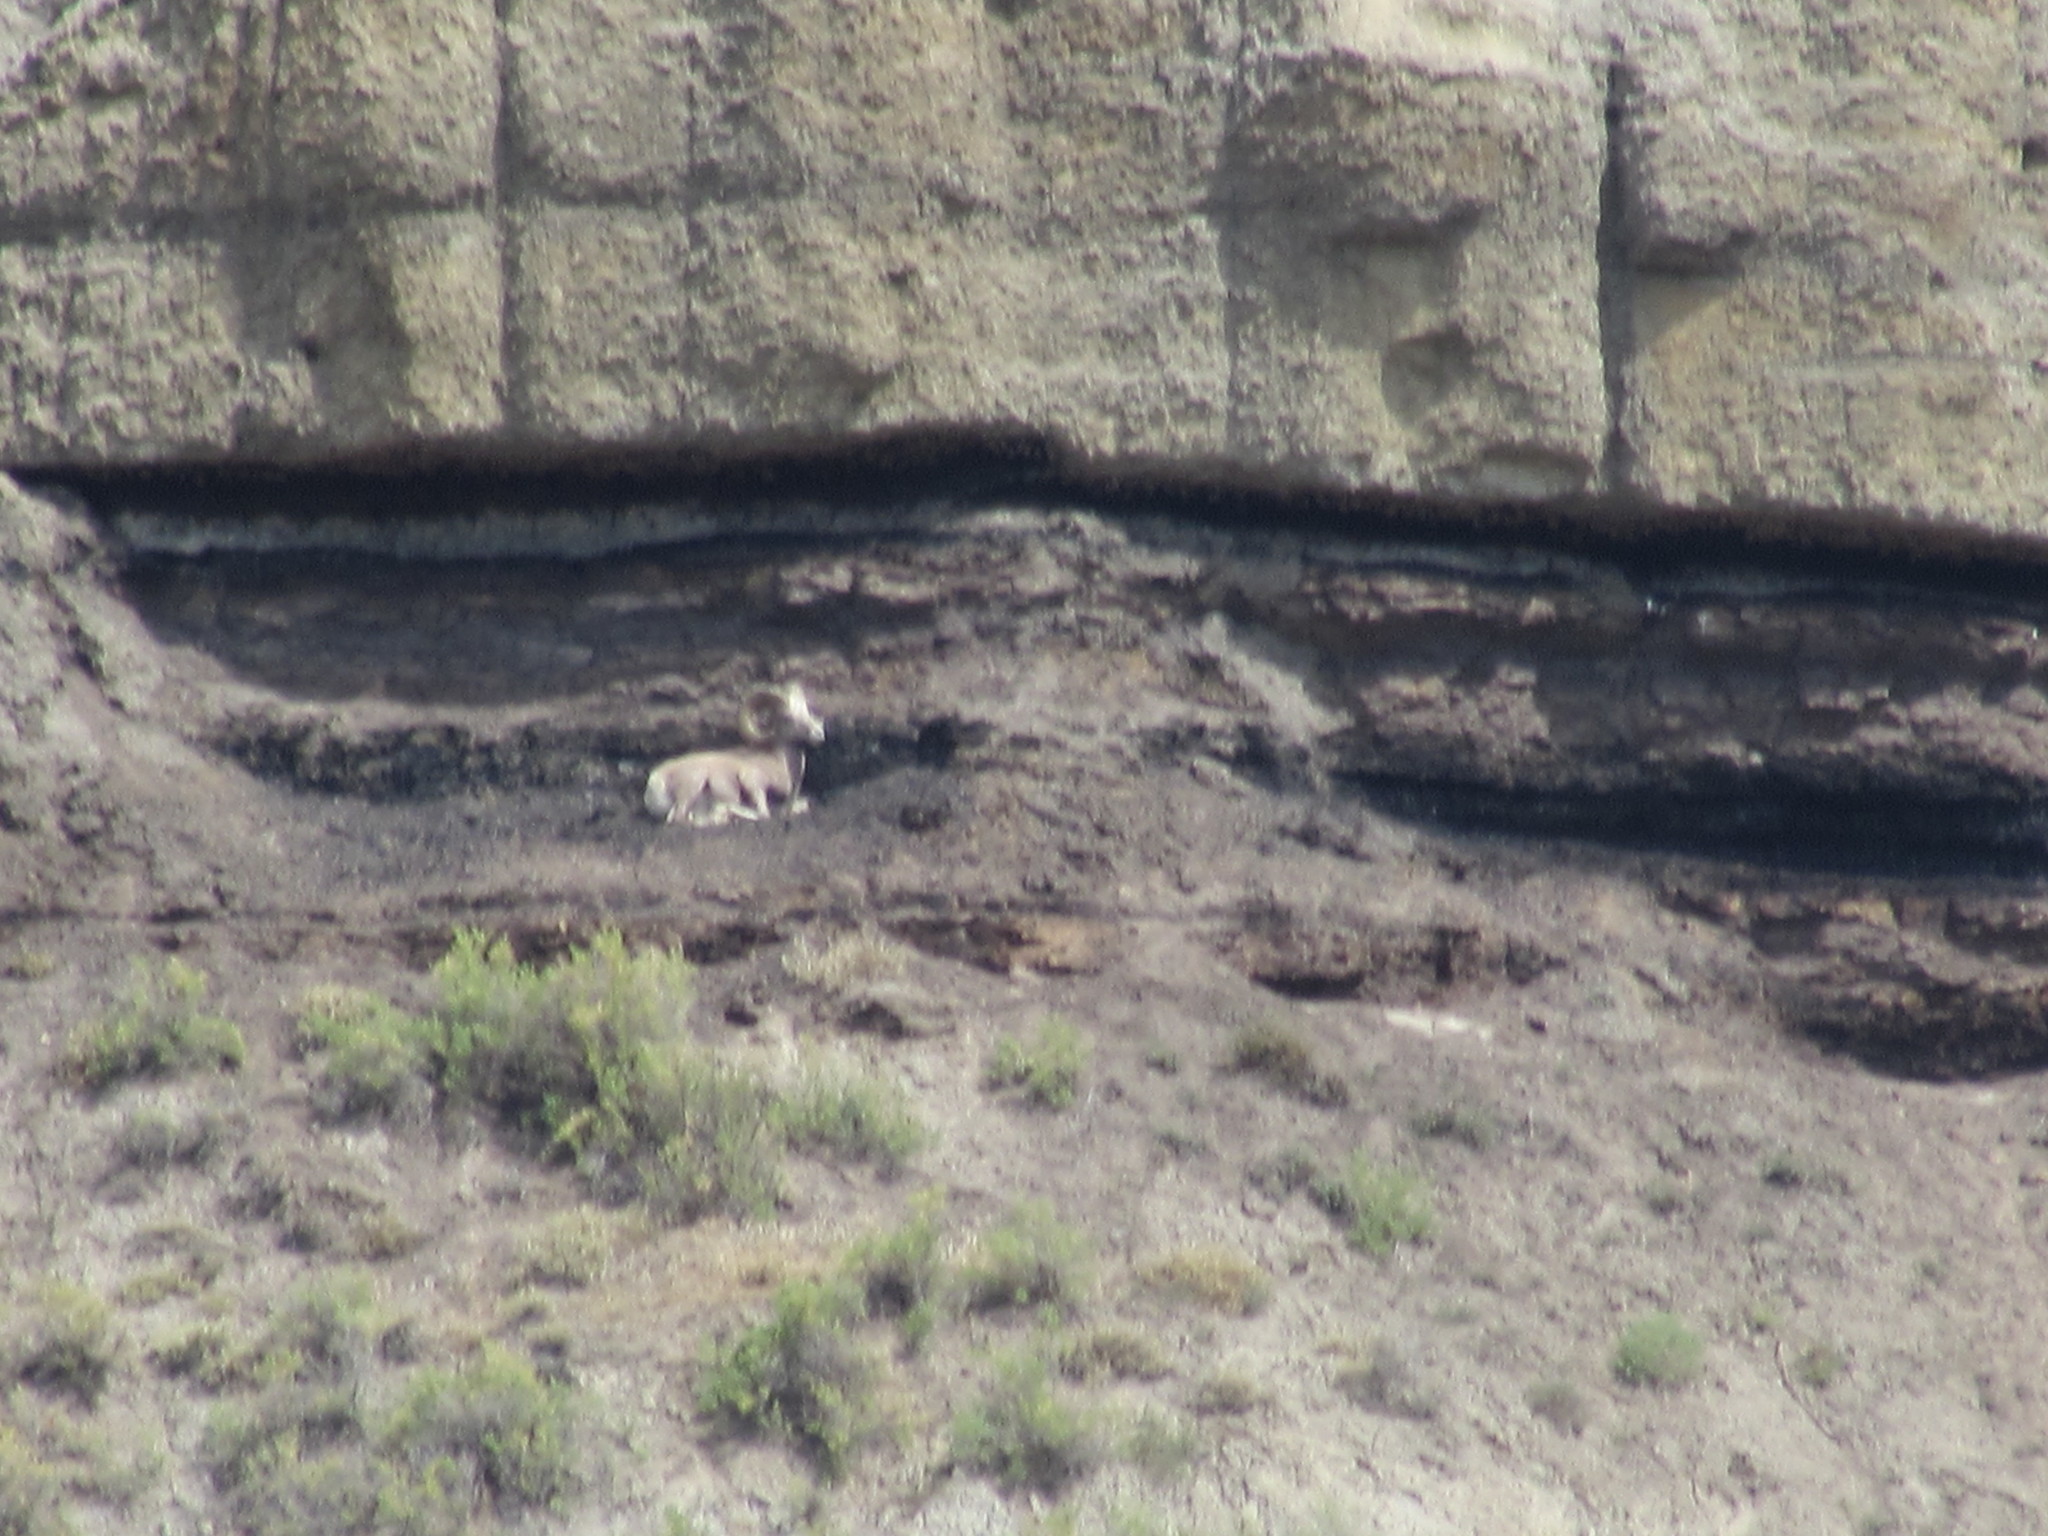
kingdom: Animalia
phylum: Chordata
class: Mammalia
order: Artiodactyla
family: Bovidae
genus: Ovis
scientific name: Ovis canadensis
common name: Bighorn sheep
